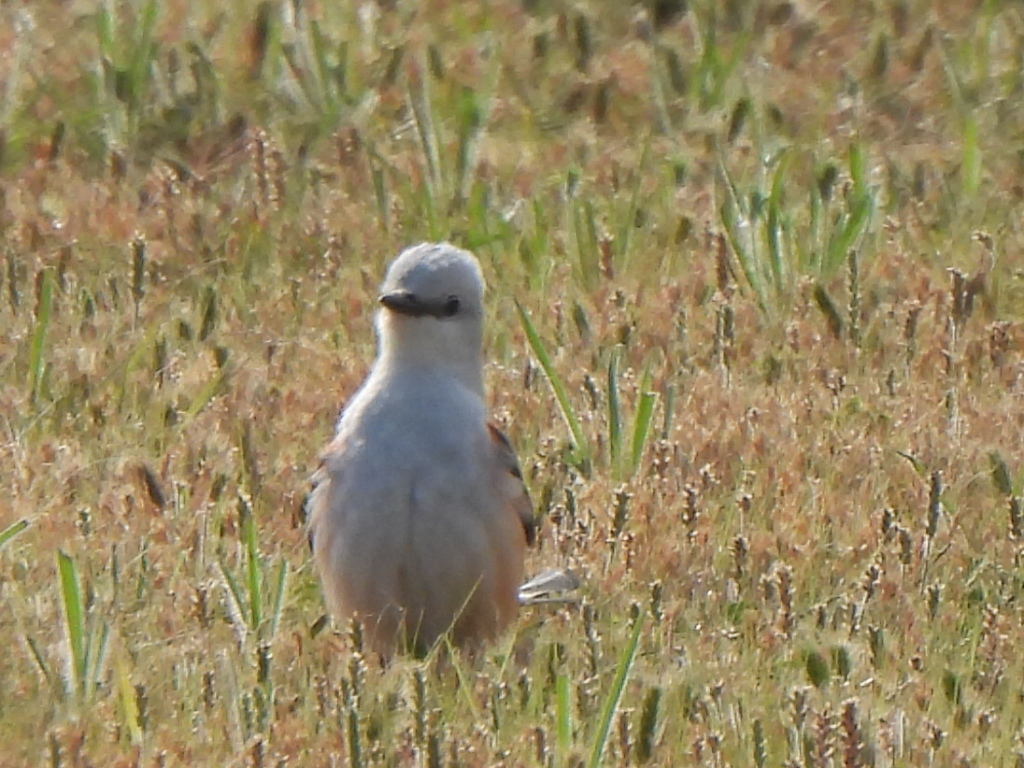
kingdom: Animalia
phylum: Chordata
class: Aves
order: Passeriformes
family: Tyrannidae
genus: Tyrannus
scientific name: Tyrannus forficatus
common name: Scissor-tailed flycatcher
